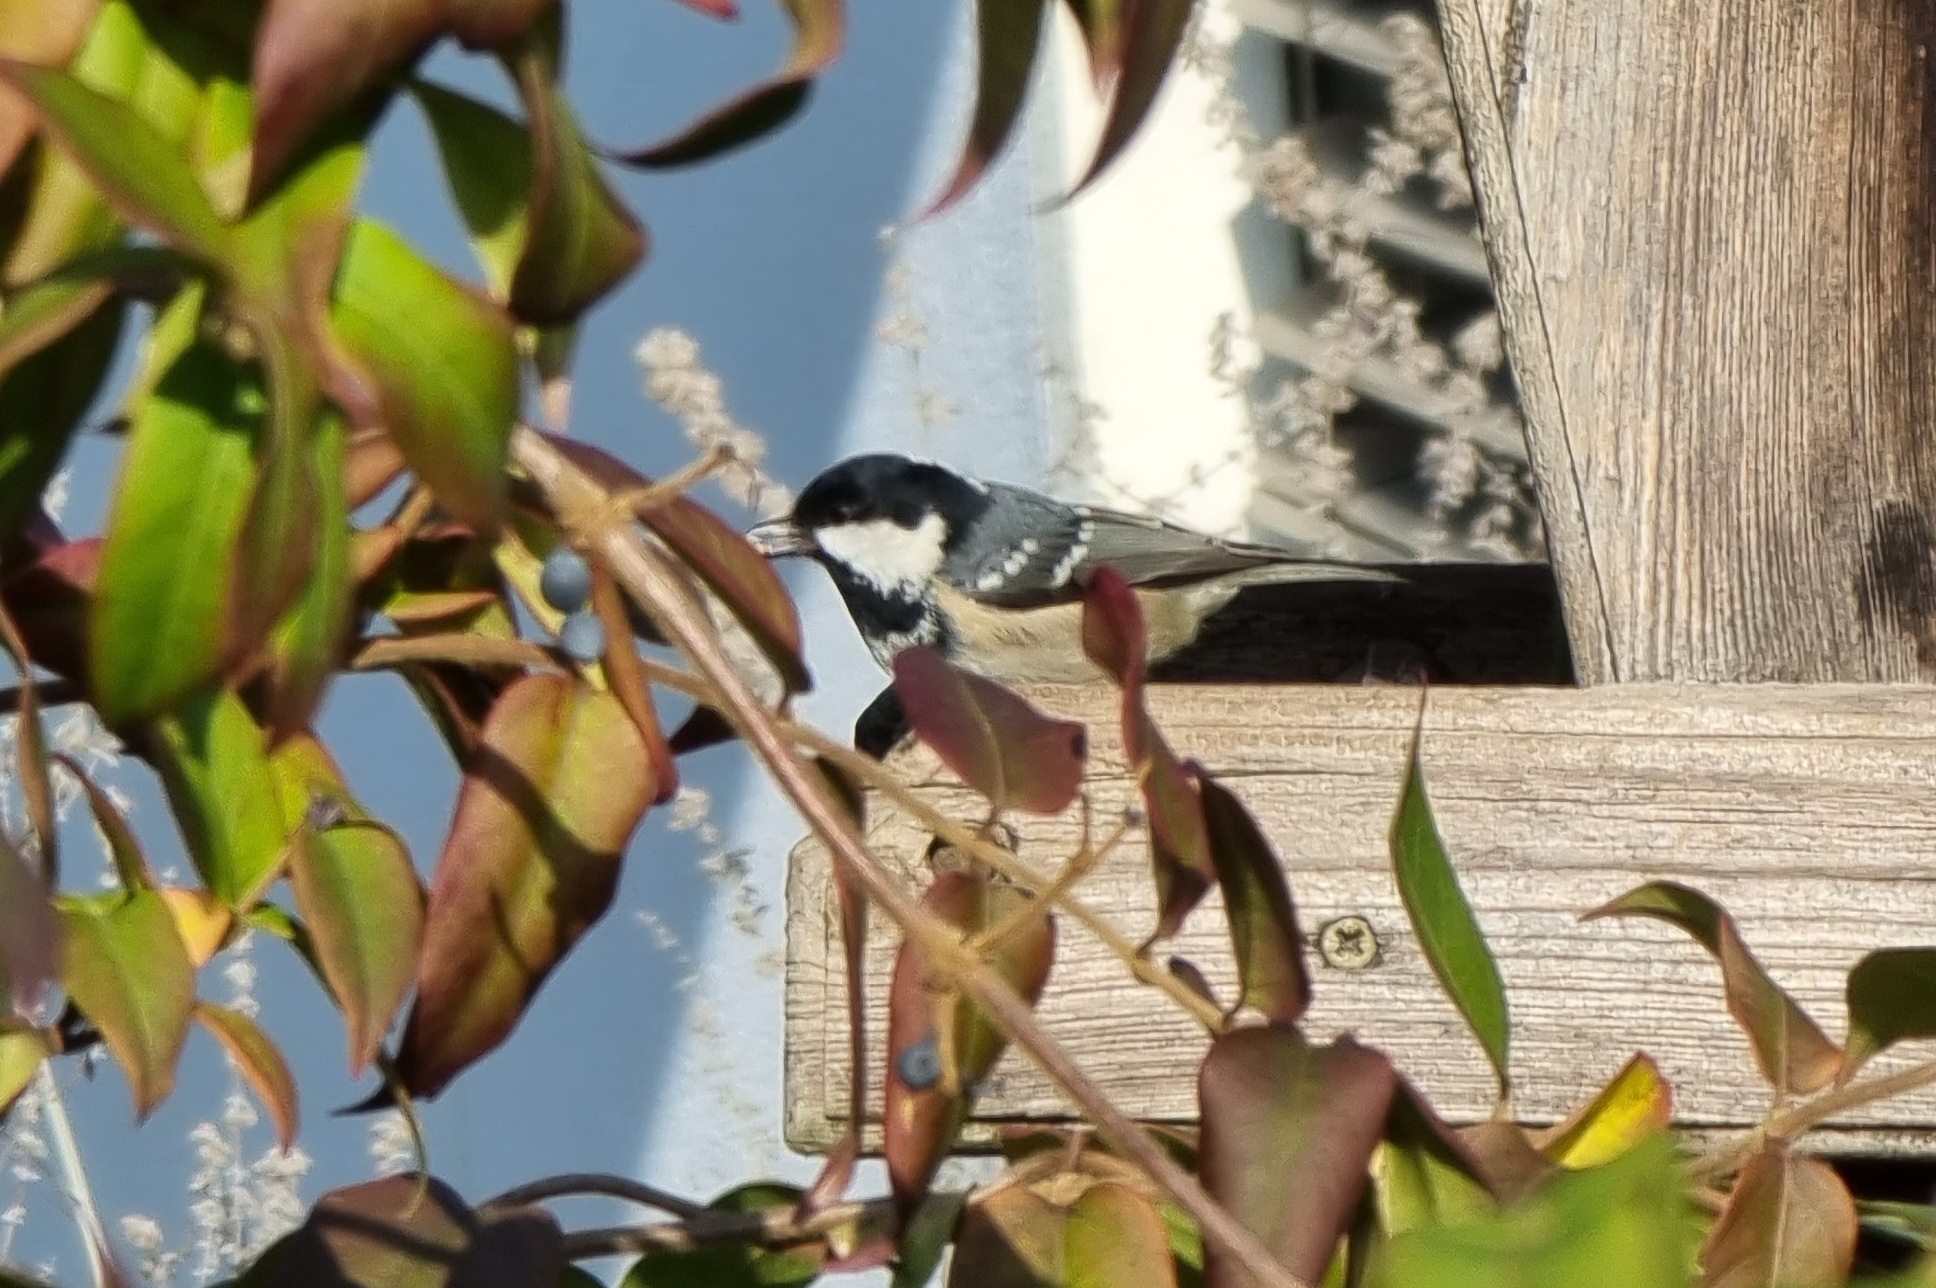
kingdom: Animalia
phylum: Chordata
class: Aves
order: Passeriformes
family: Paridae
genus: Periparus
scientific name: Periparus ater
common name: Coal tit
